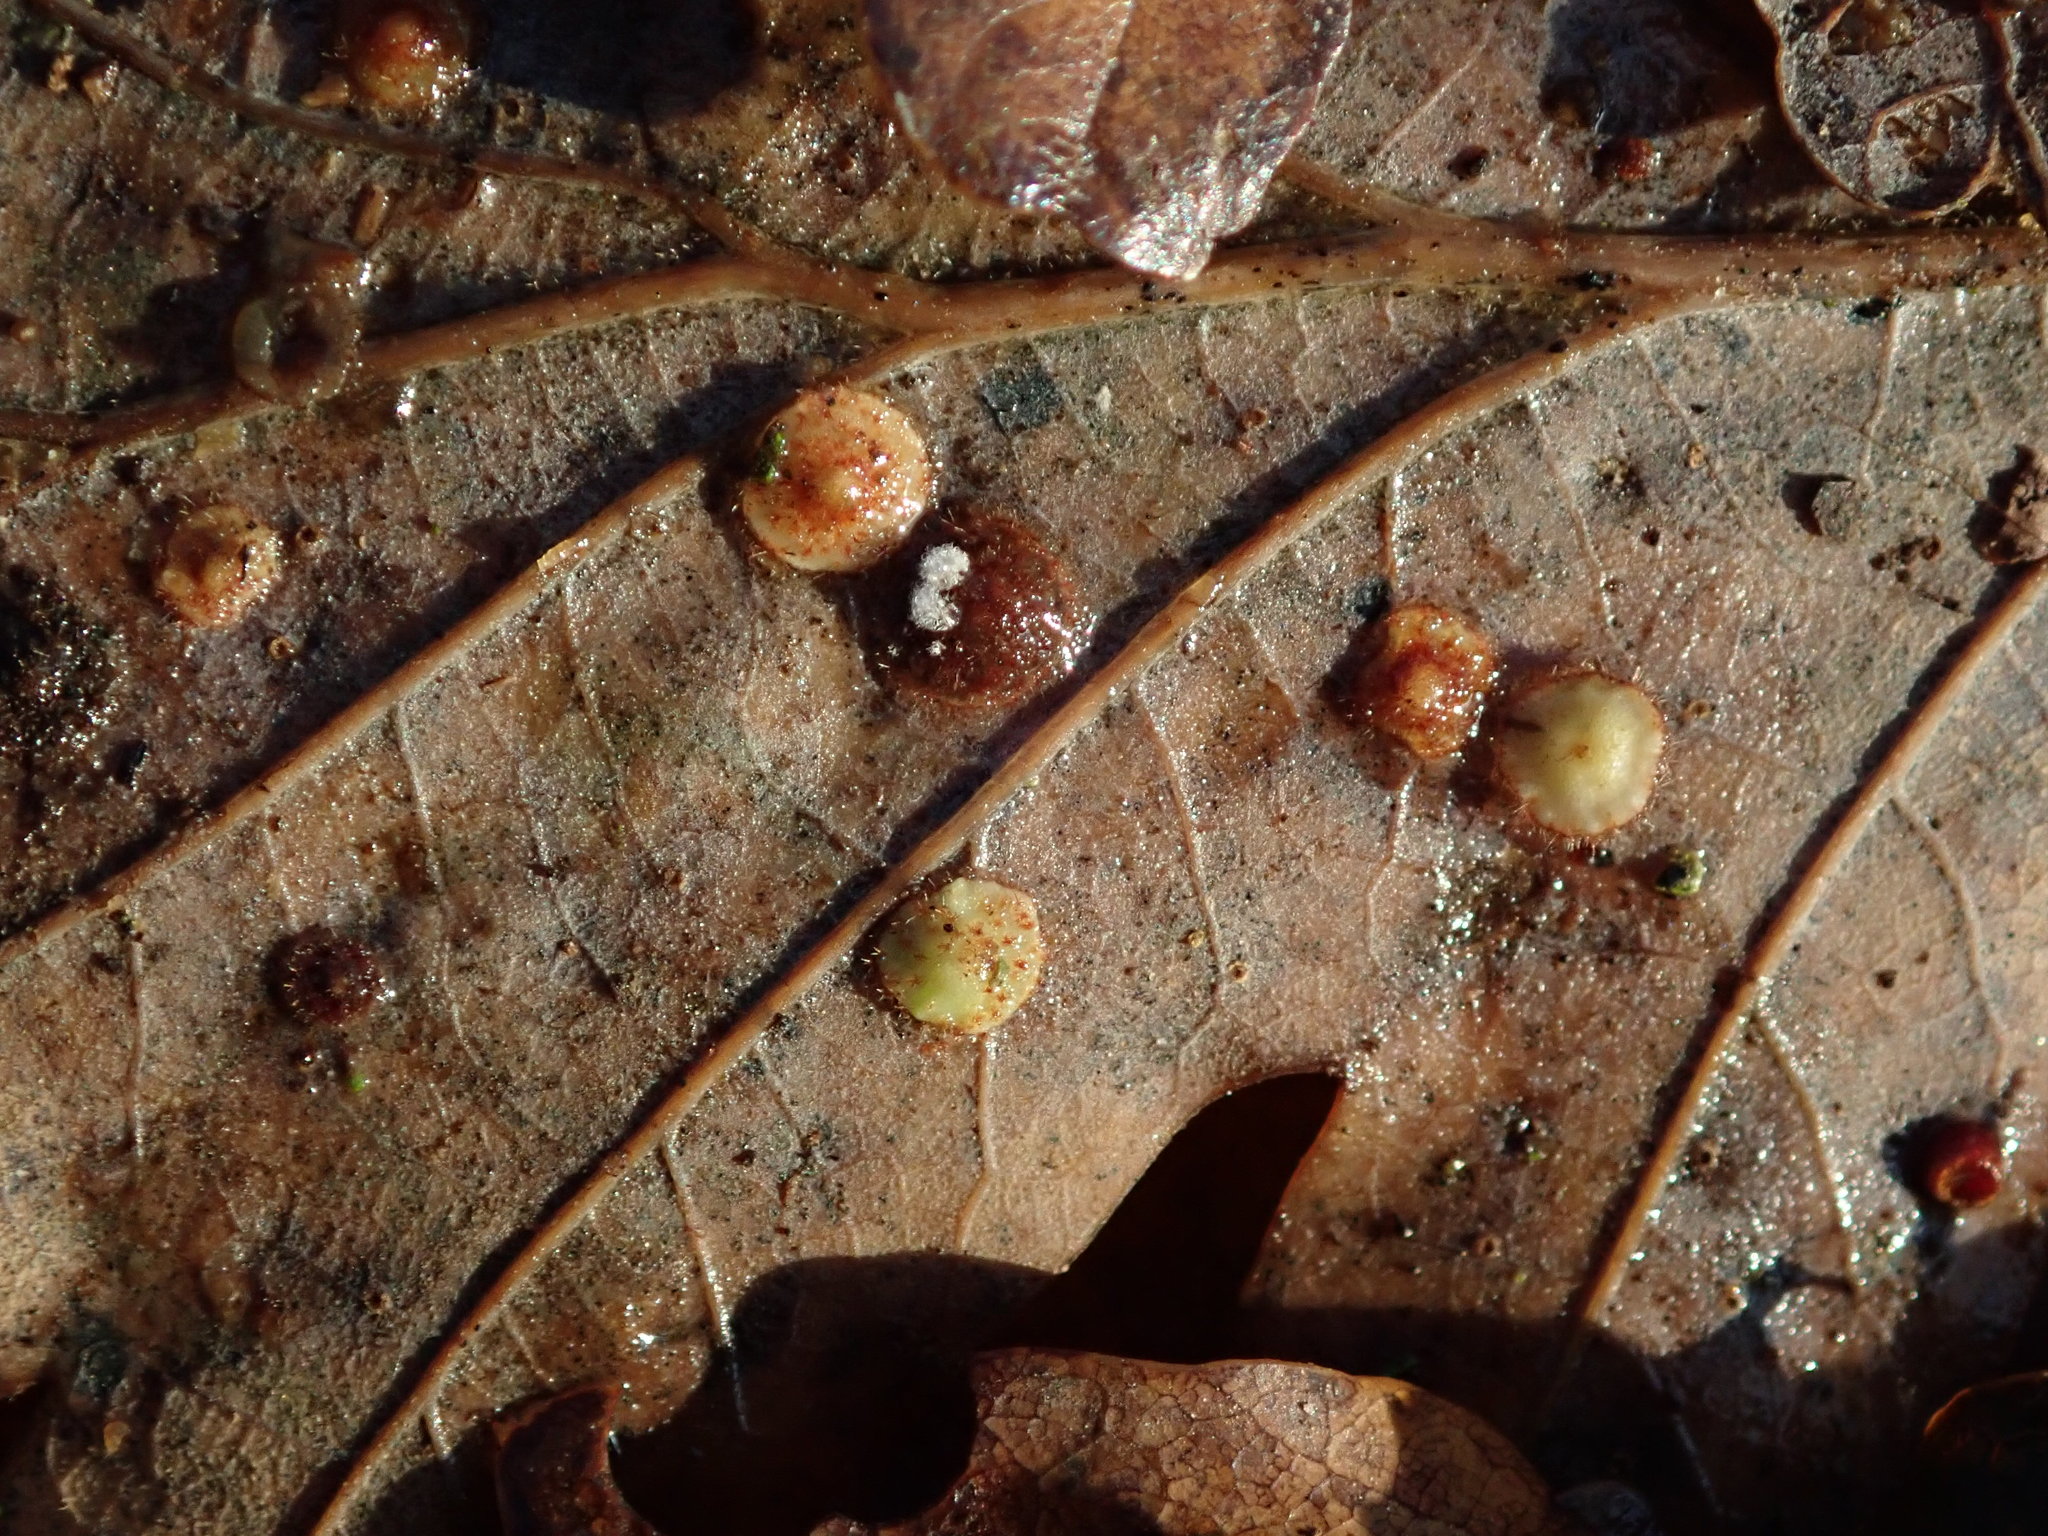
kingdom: Animalia
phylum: Arthropoda
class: Insecta
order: Hymenoptera
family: Cynipidae
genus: Neuroterus
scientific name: Neuroterus quercusbaccarum
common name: Common spangle gall
